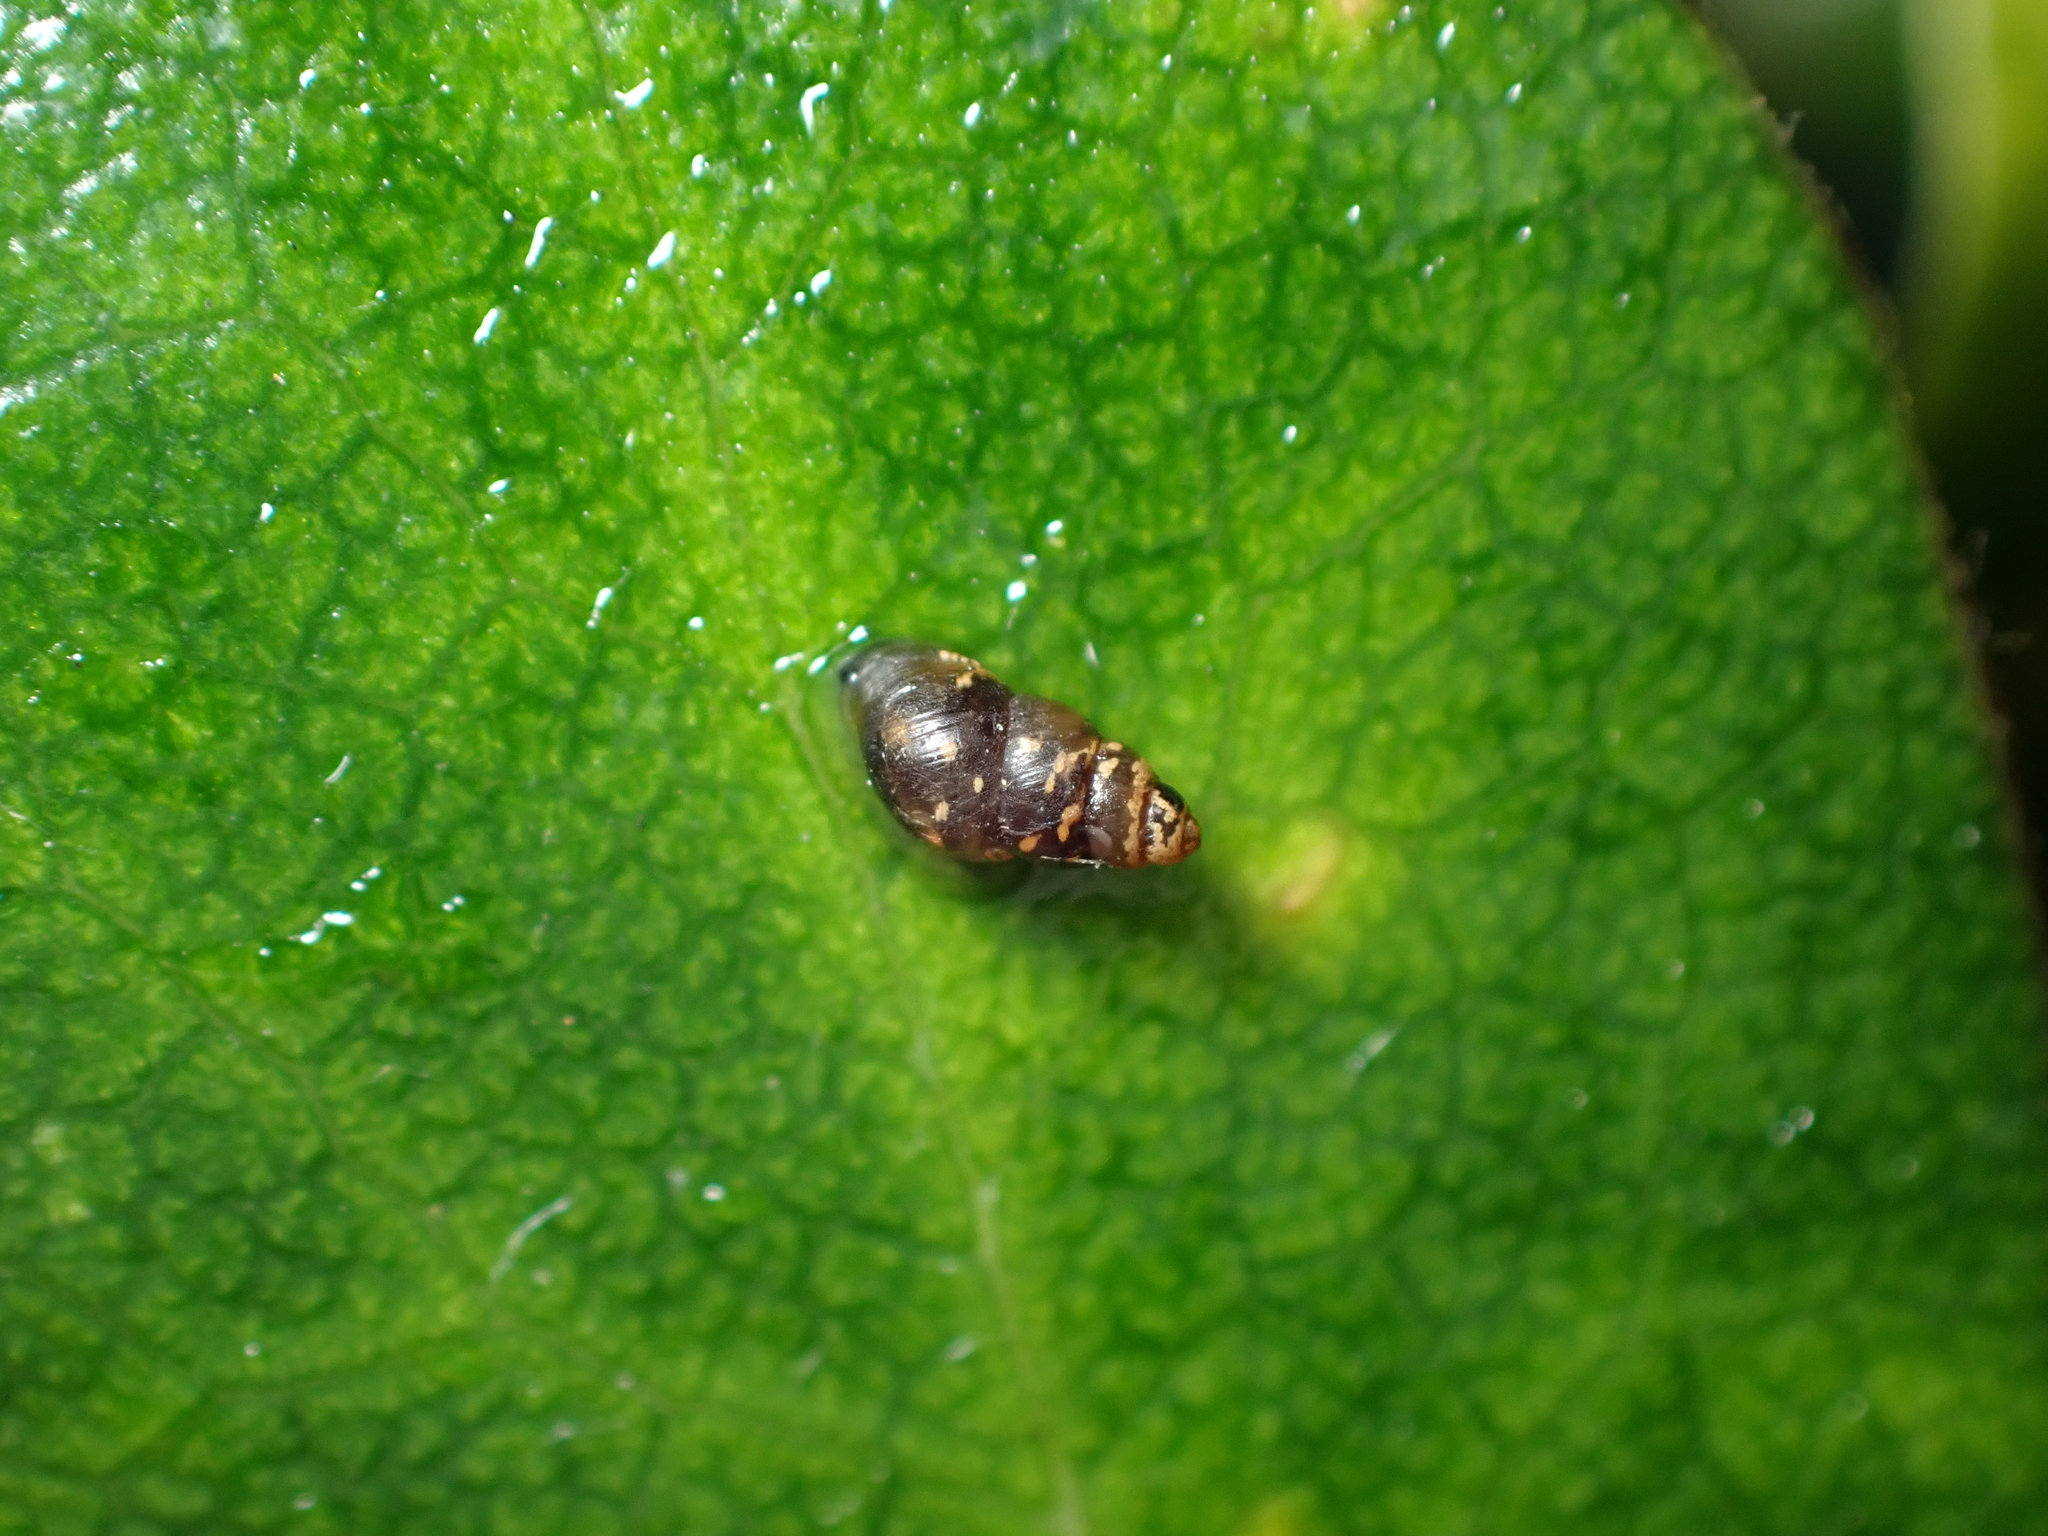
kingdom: Animalia
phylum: Mollusca
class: Gastropoda
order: Stylommatophora
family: Achatinellidae
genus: Tornatellinops
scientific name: Tornatellinops novoseelandicus
